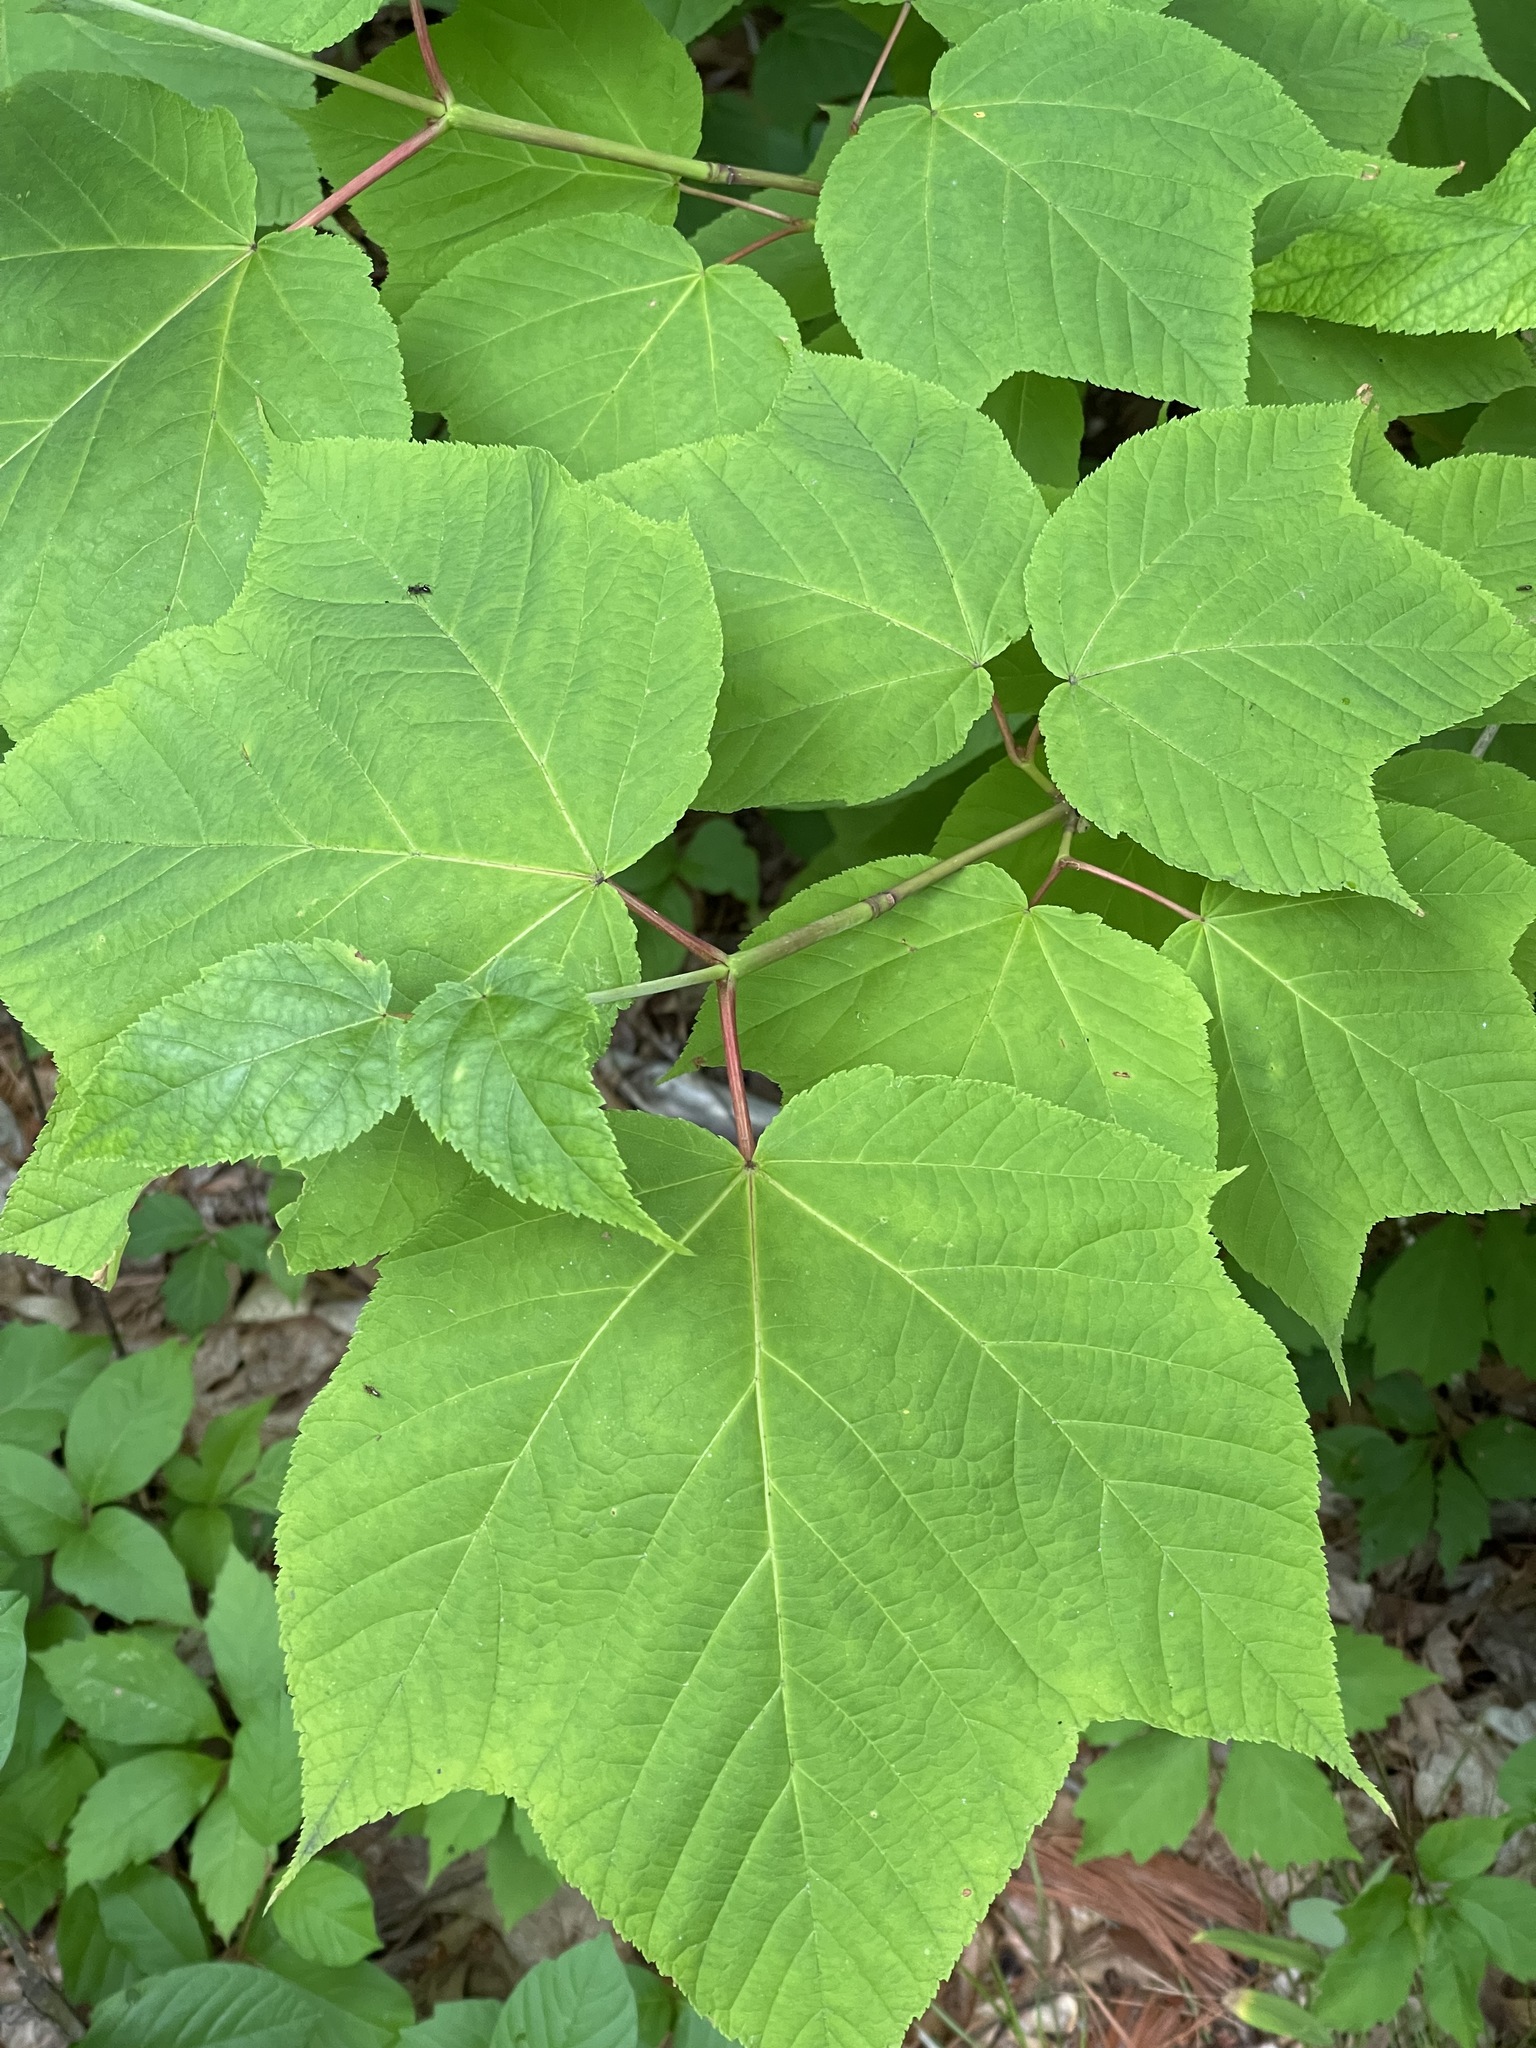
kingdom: Plantae
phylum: Tracheophyta
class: Magnoliopsida
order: Sapindales
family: Sapindaceae
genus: Acer
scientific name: Acer pensylvanicum
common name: Moosewood
